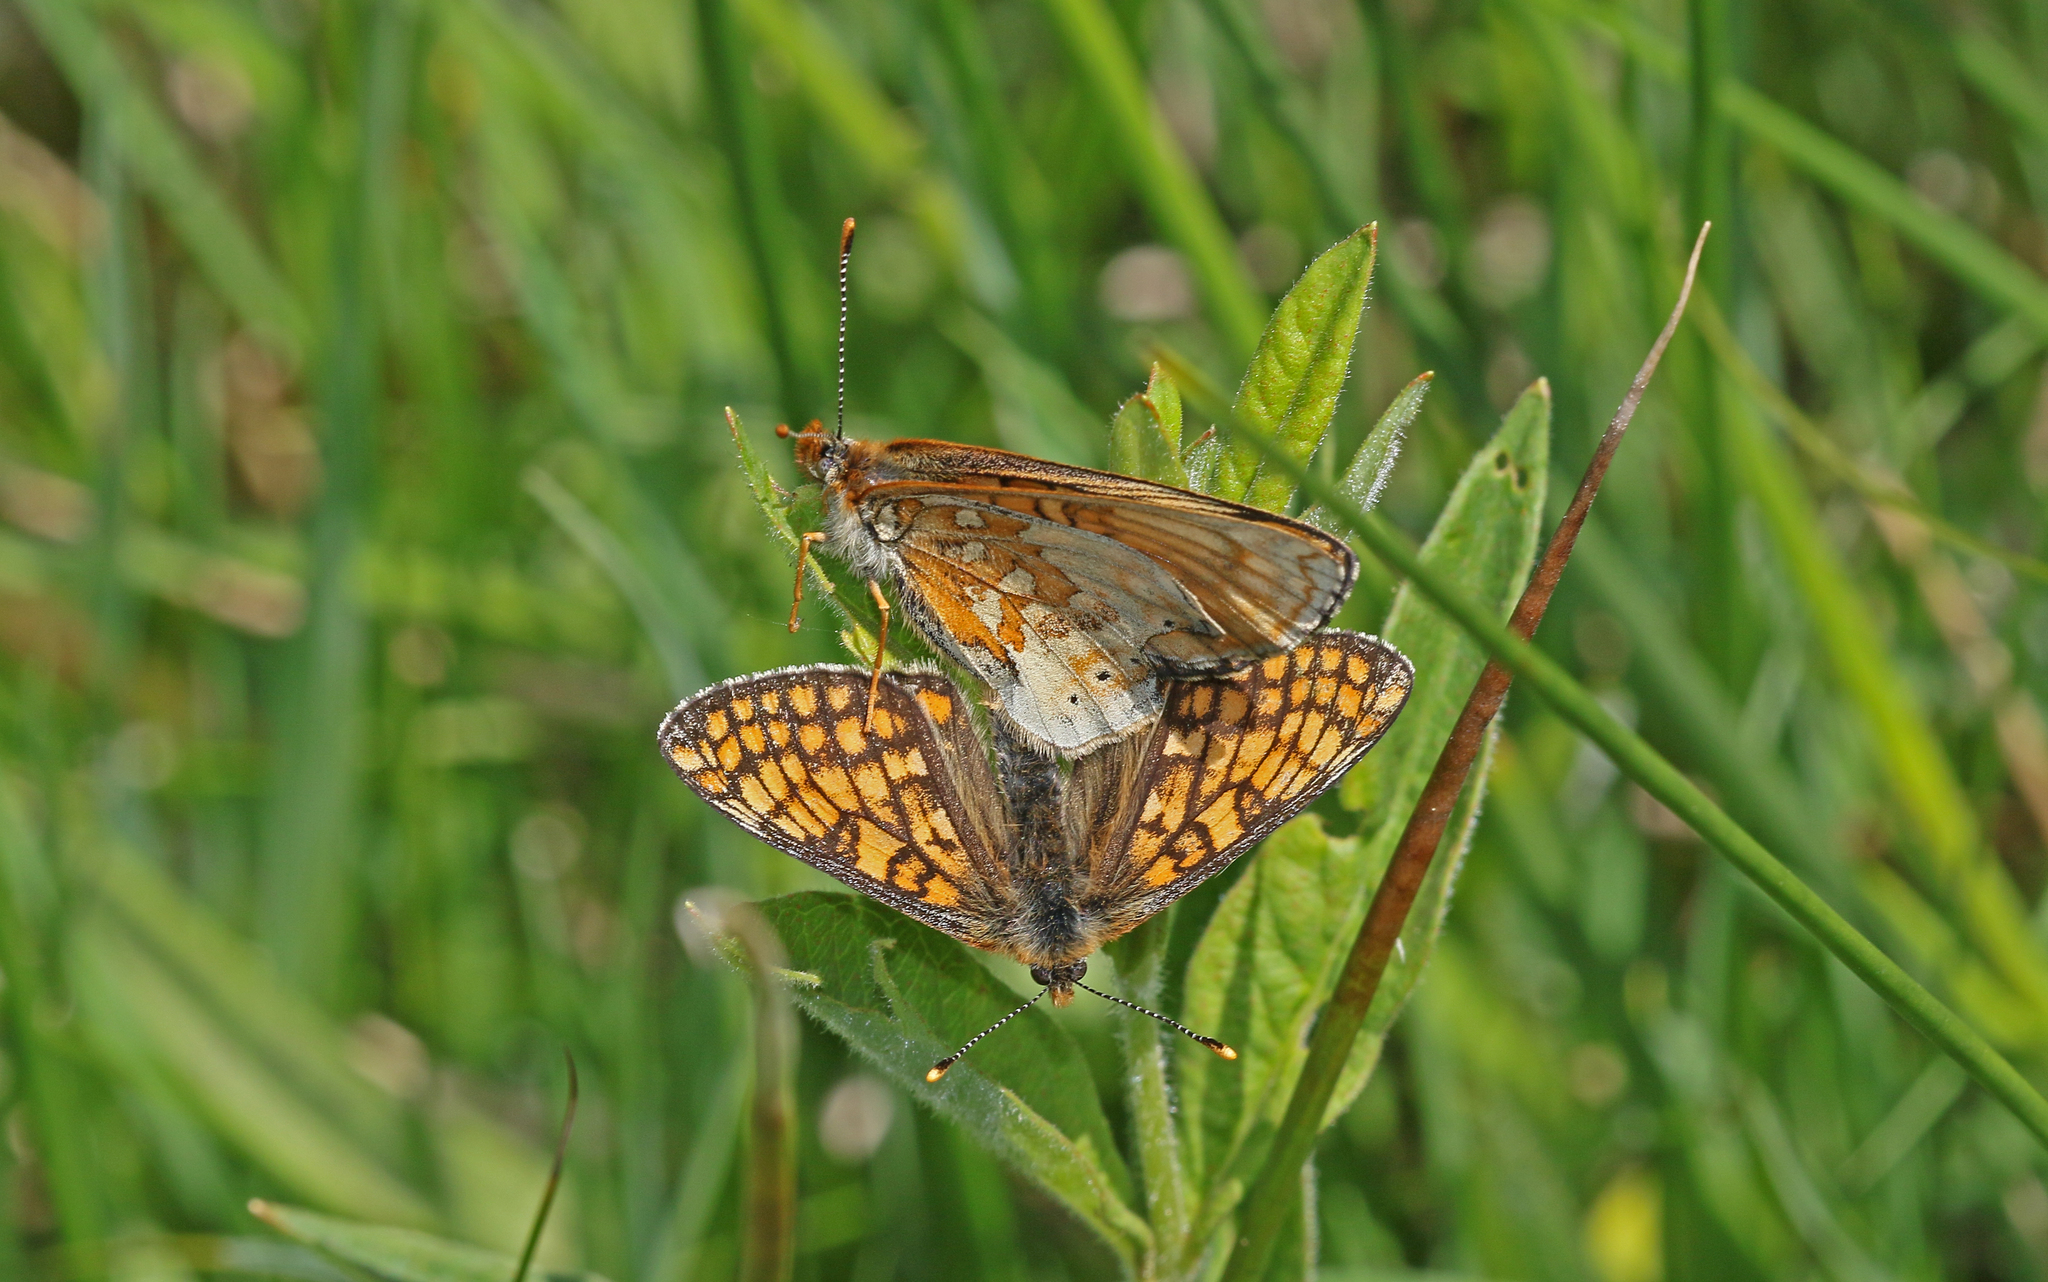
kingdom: Animalia
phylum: Arthropoda
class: Insecta
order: Lepidoptera
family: Nymphalidae
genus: Euphydryas
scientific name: Euphydryas aurinia
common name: Marsh fritillary
